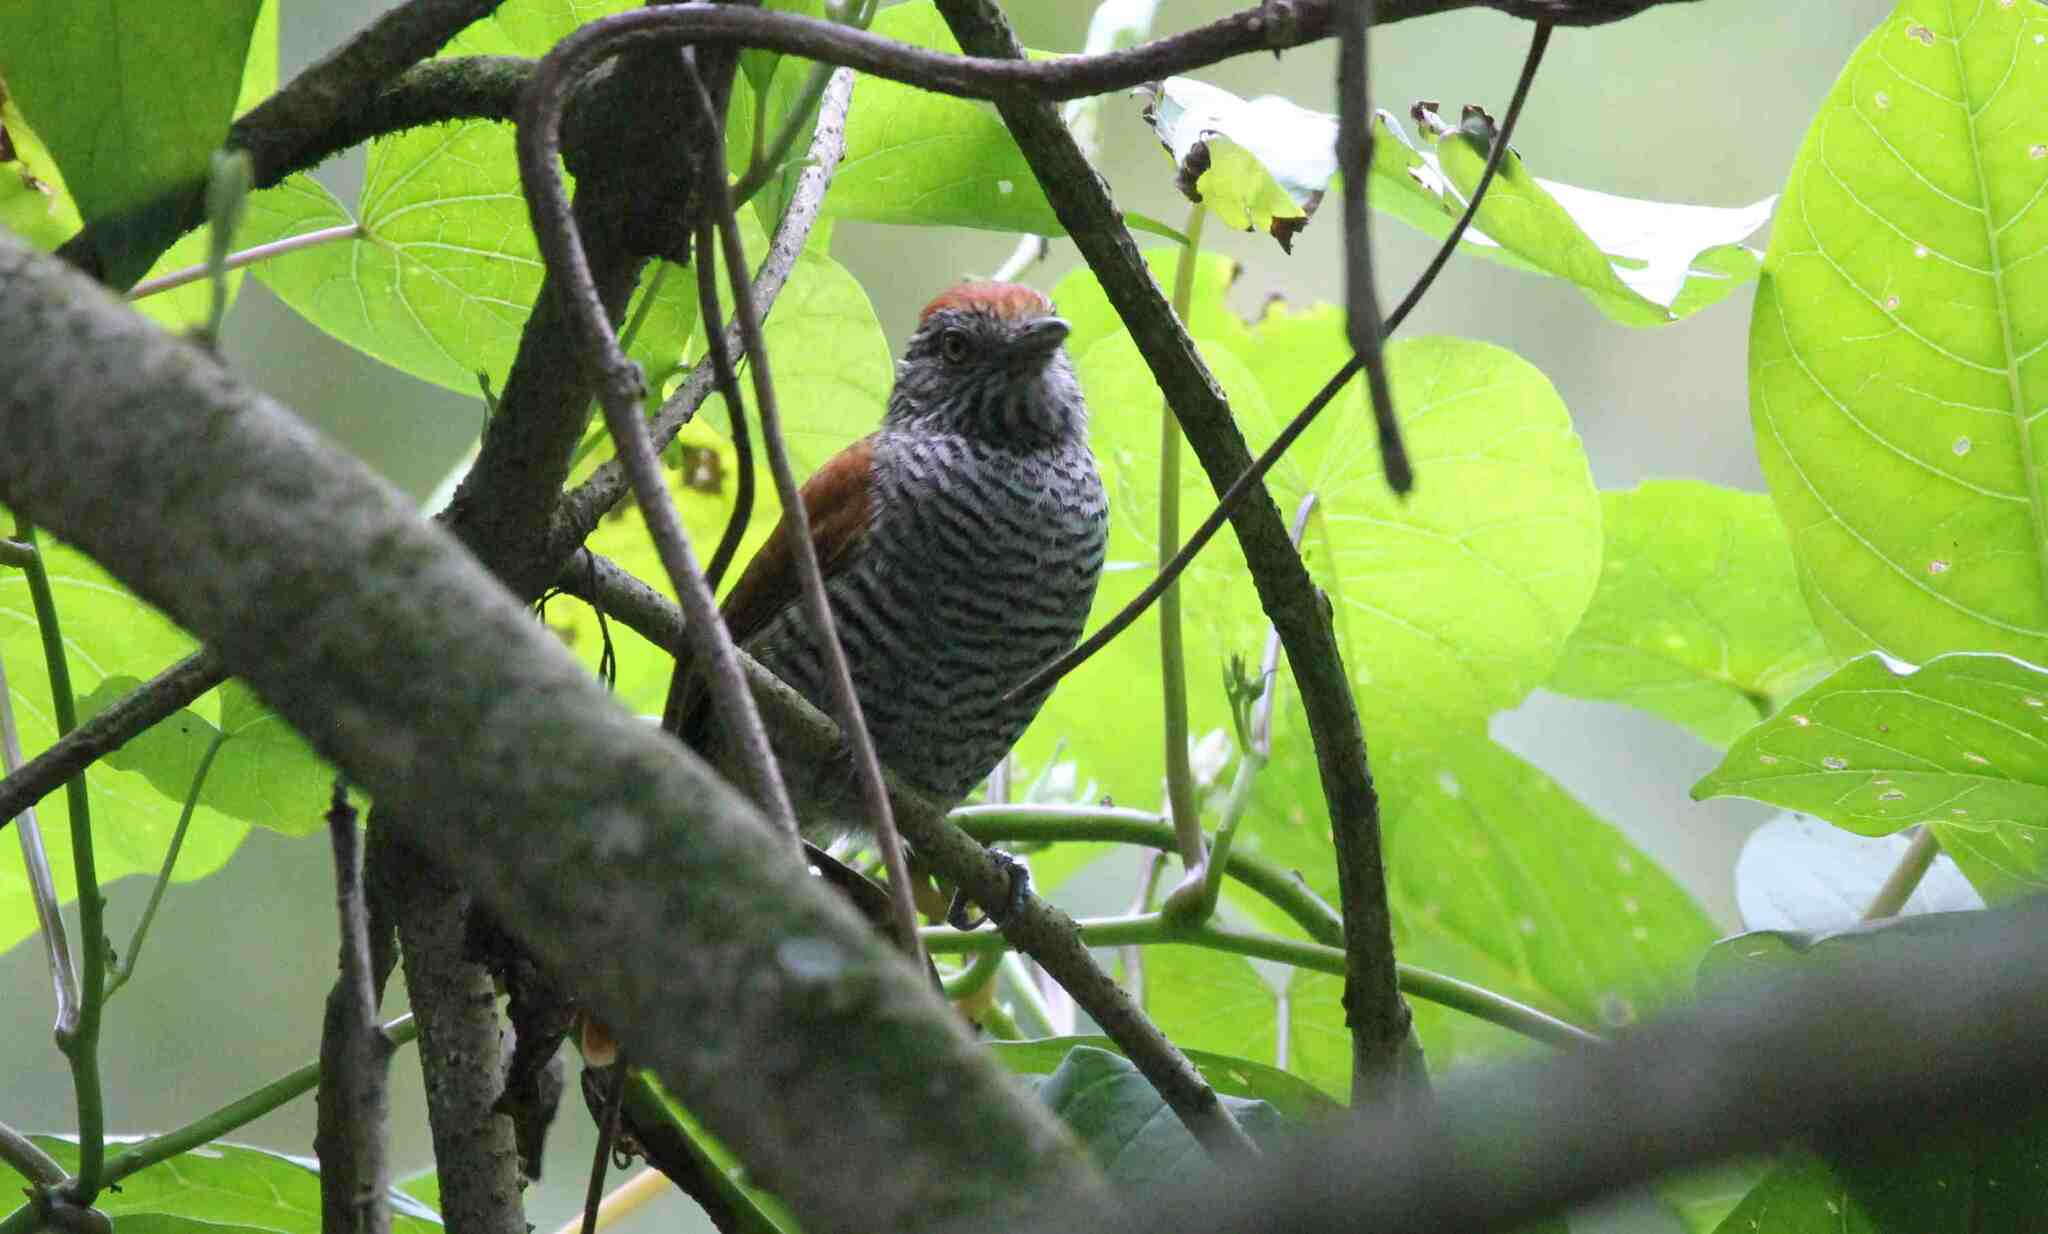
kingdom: Animalia
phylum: Chordata
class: Aves
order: Passeriformes
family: Thamnophilidae
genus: Thamnophilus
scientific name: Thamnophilus multistriatus
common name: Bar-crested antshrike
